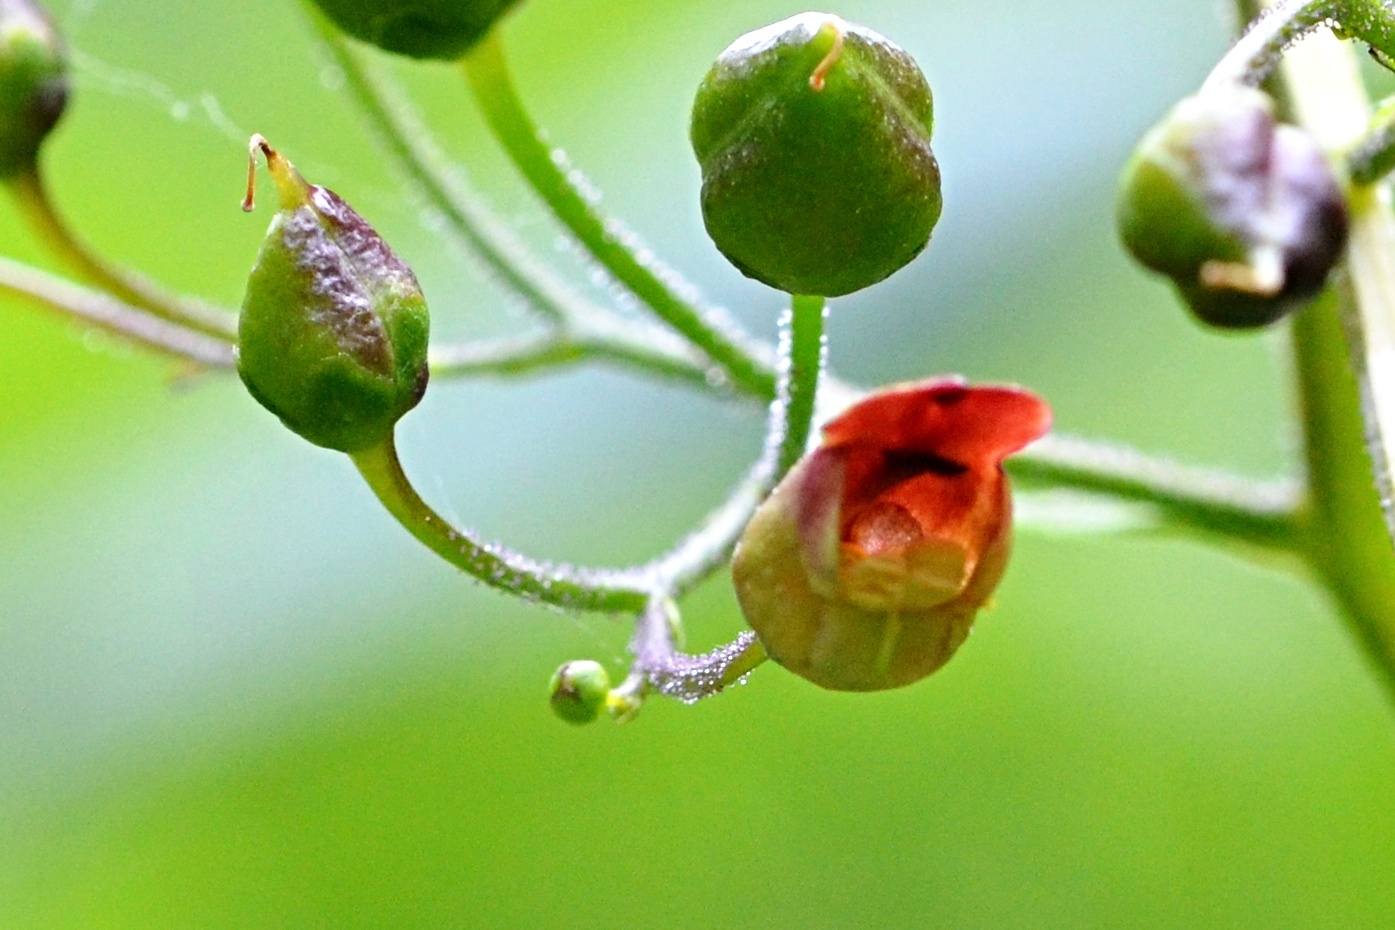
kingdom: Plantae
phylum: Tracheophyta
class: Magnoliopsida
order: Lamiales
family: Scrophulariaceae
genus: Scrophularia
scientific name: Scrophularia nodosa
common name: Common figwort
